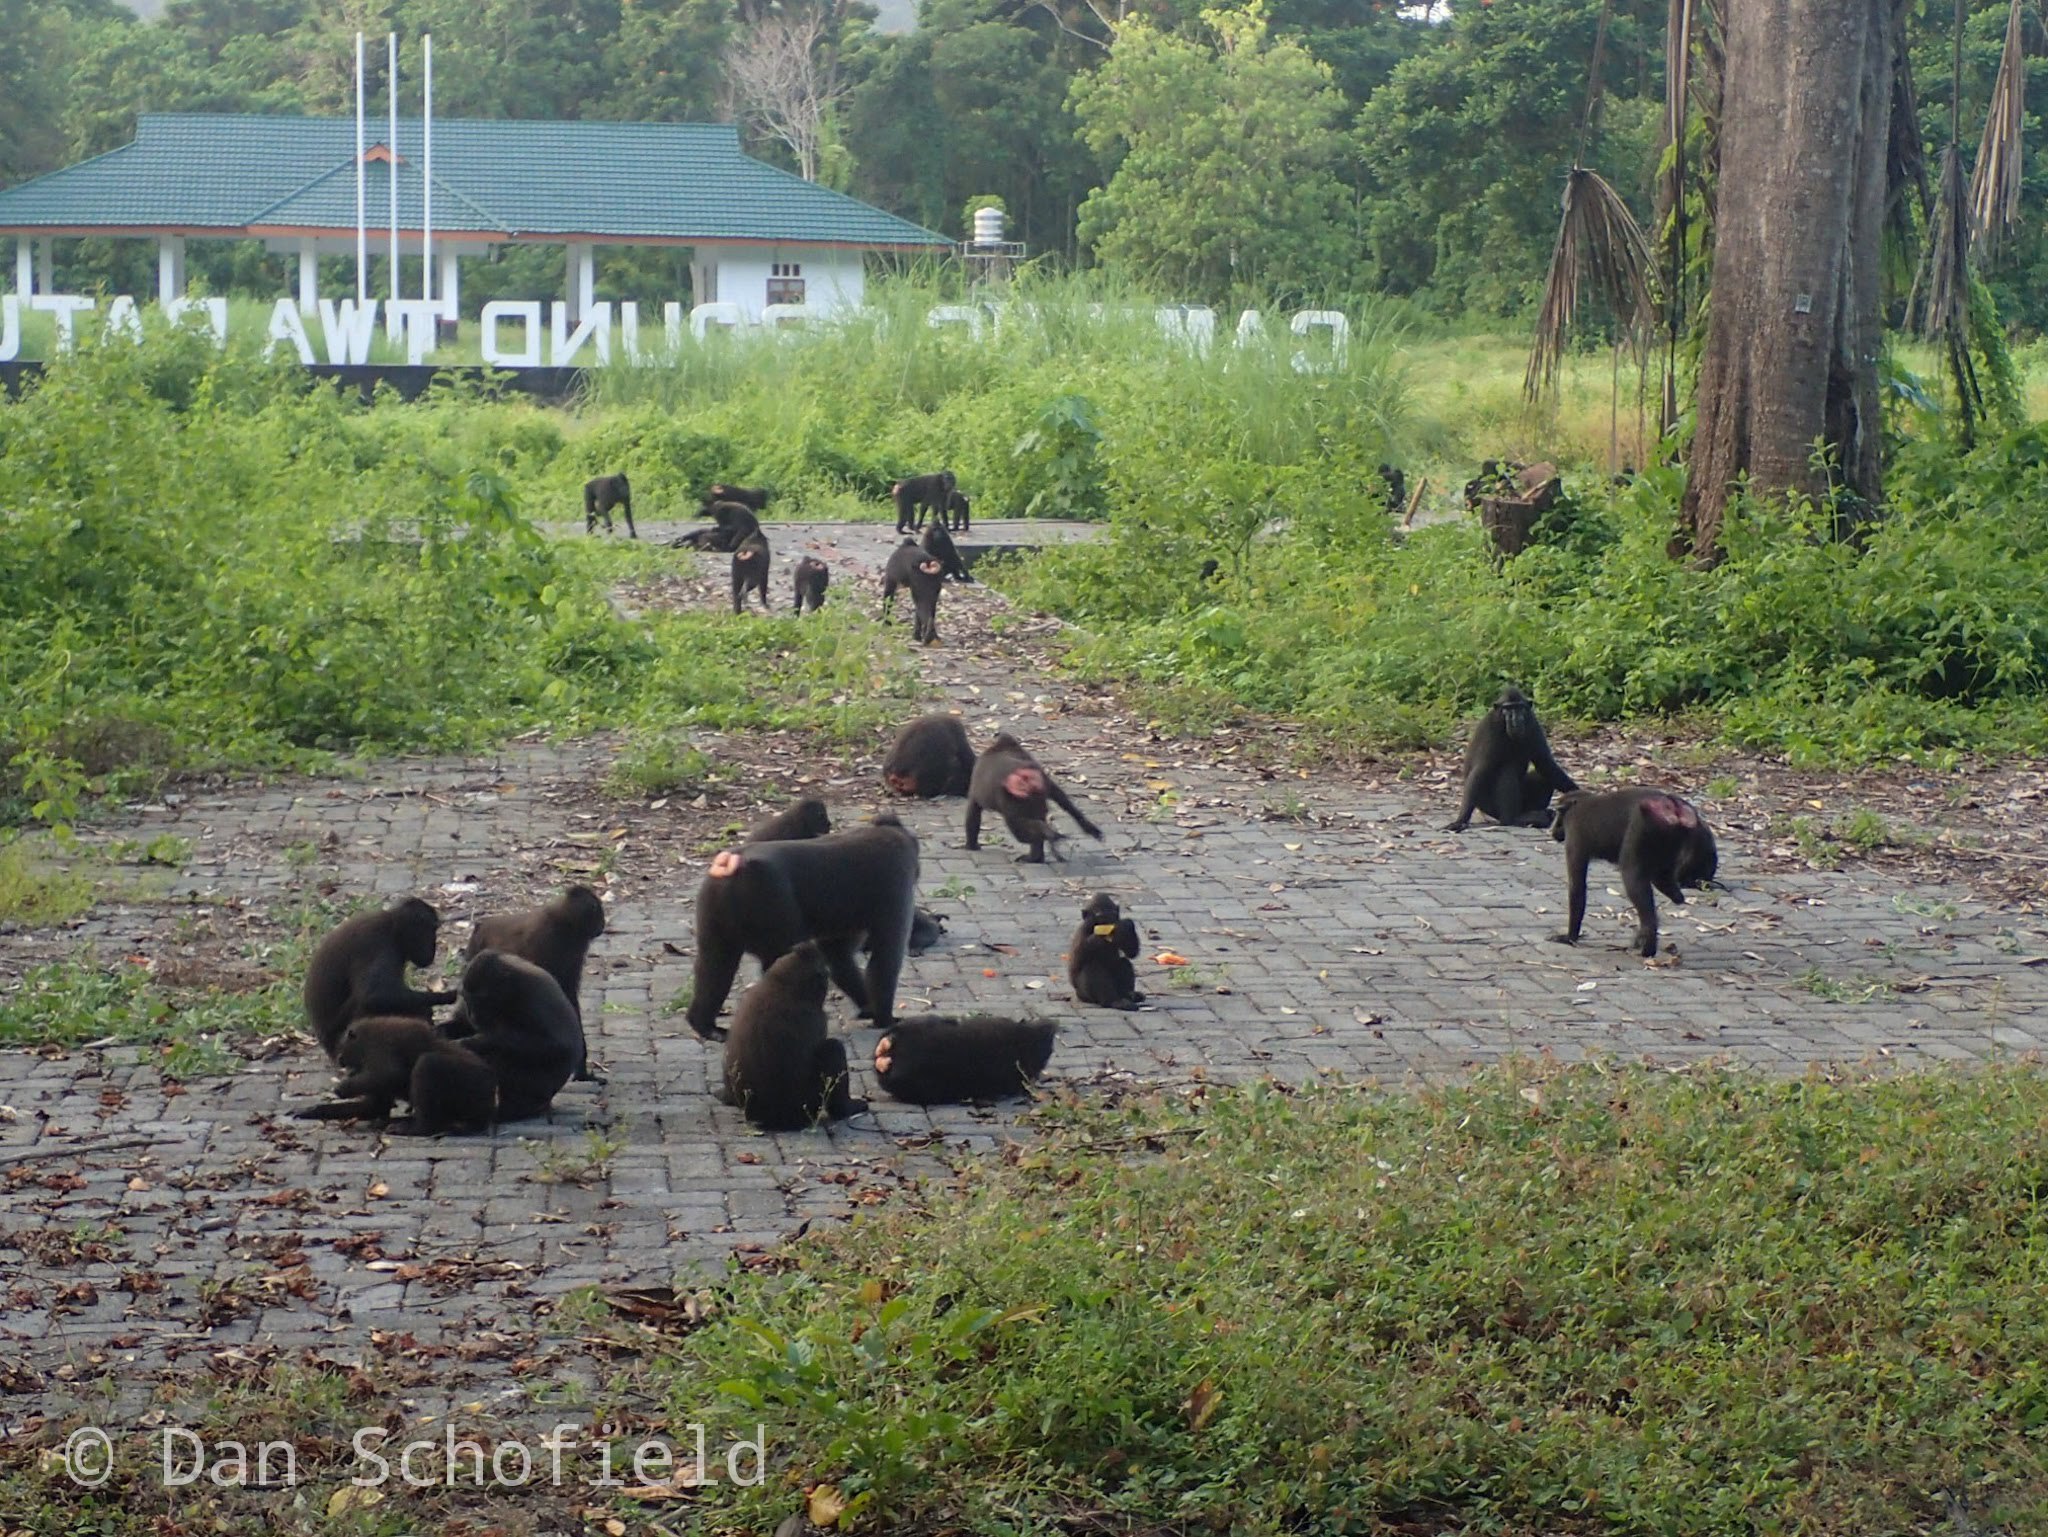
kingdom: Animalia
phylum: Chordata
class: Mammalia
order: Primates
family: Cercopithecidae
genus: Macaca
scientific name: Macaca nigra
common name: Celebes crested macaque
